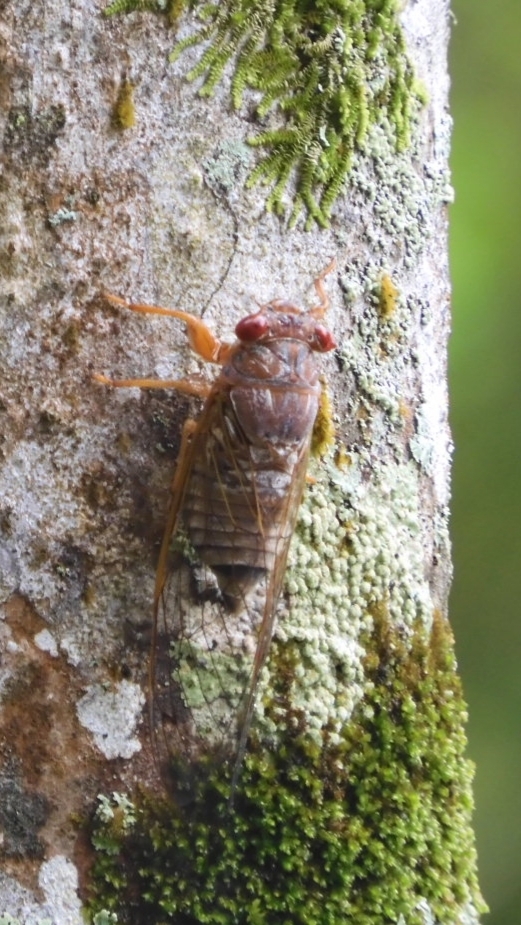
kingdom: Animalia
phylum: Arthropoda
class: Insecta
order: Hemiptera
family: Cicadidae
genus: Tamasa
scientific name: Tamasa doddi
